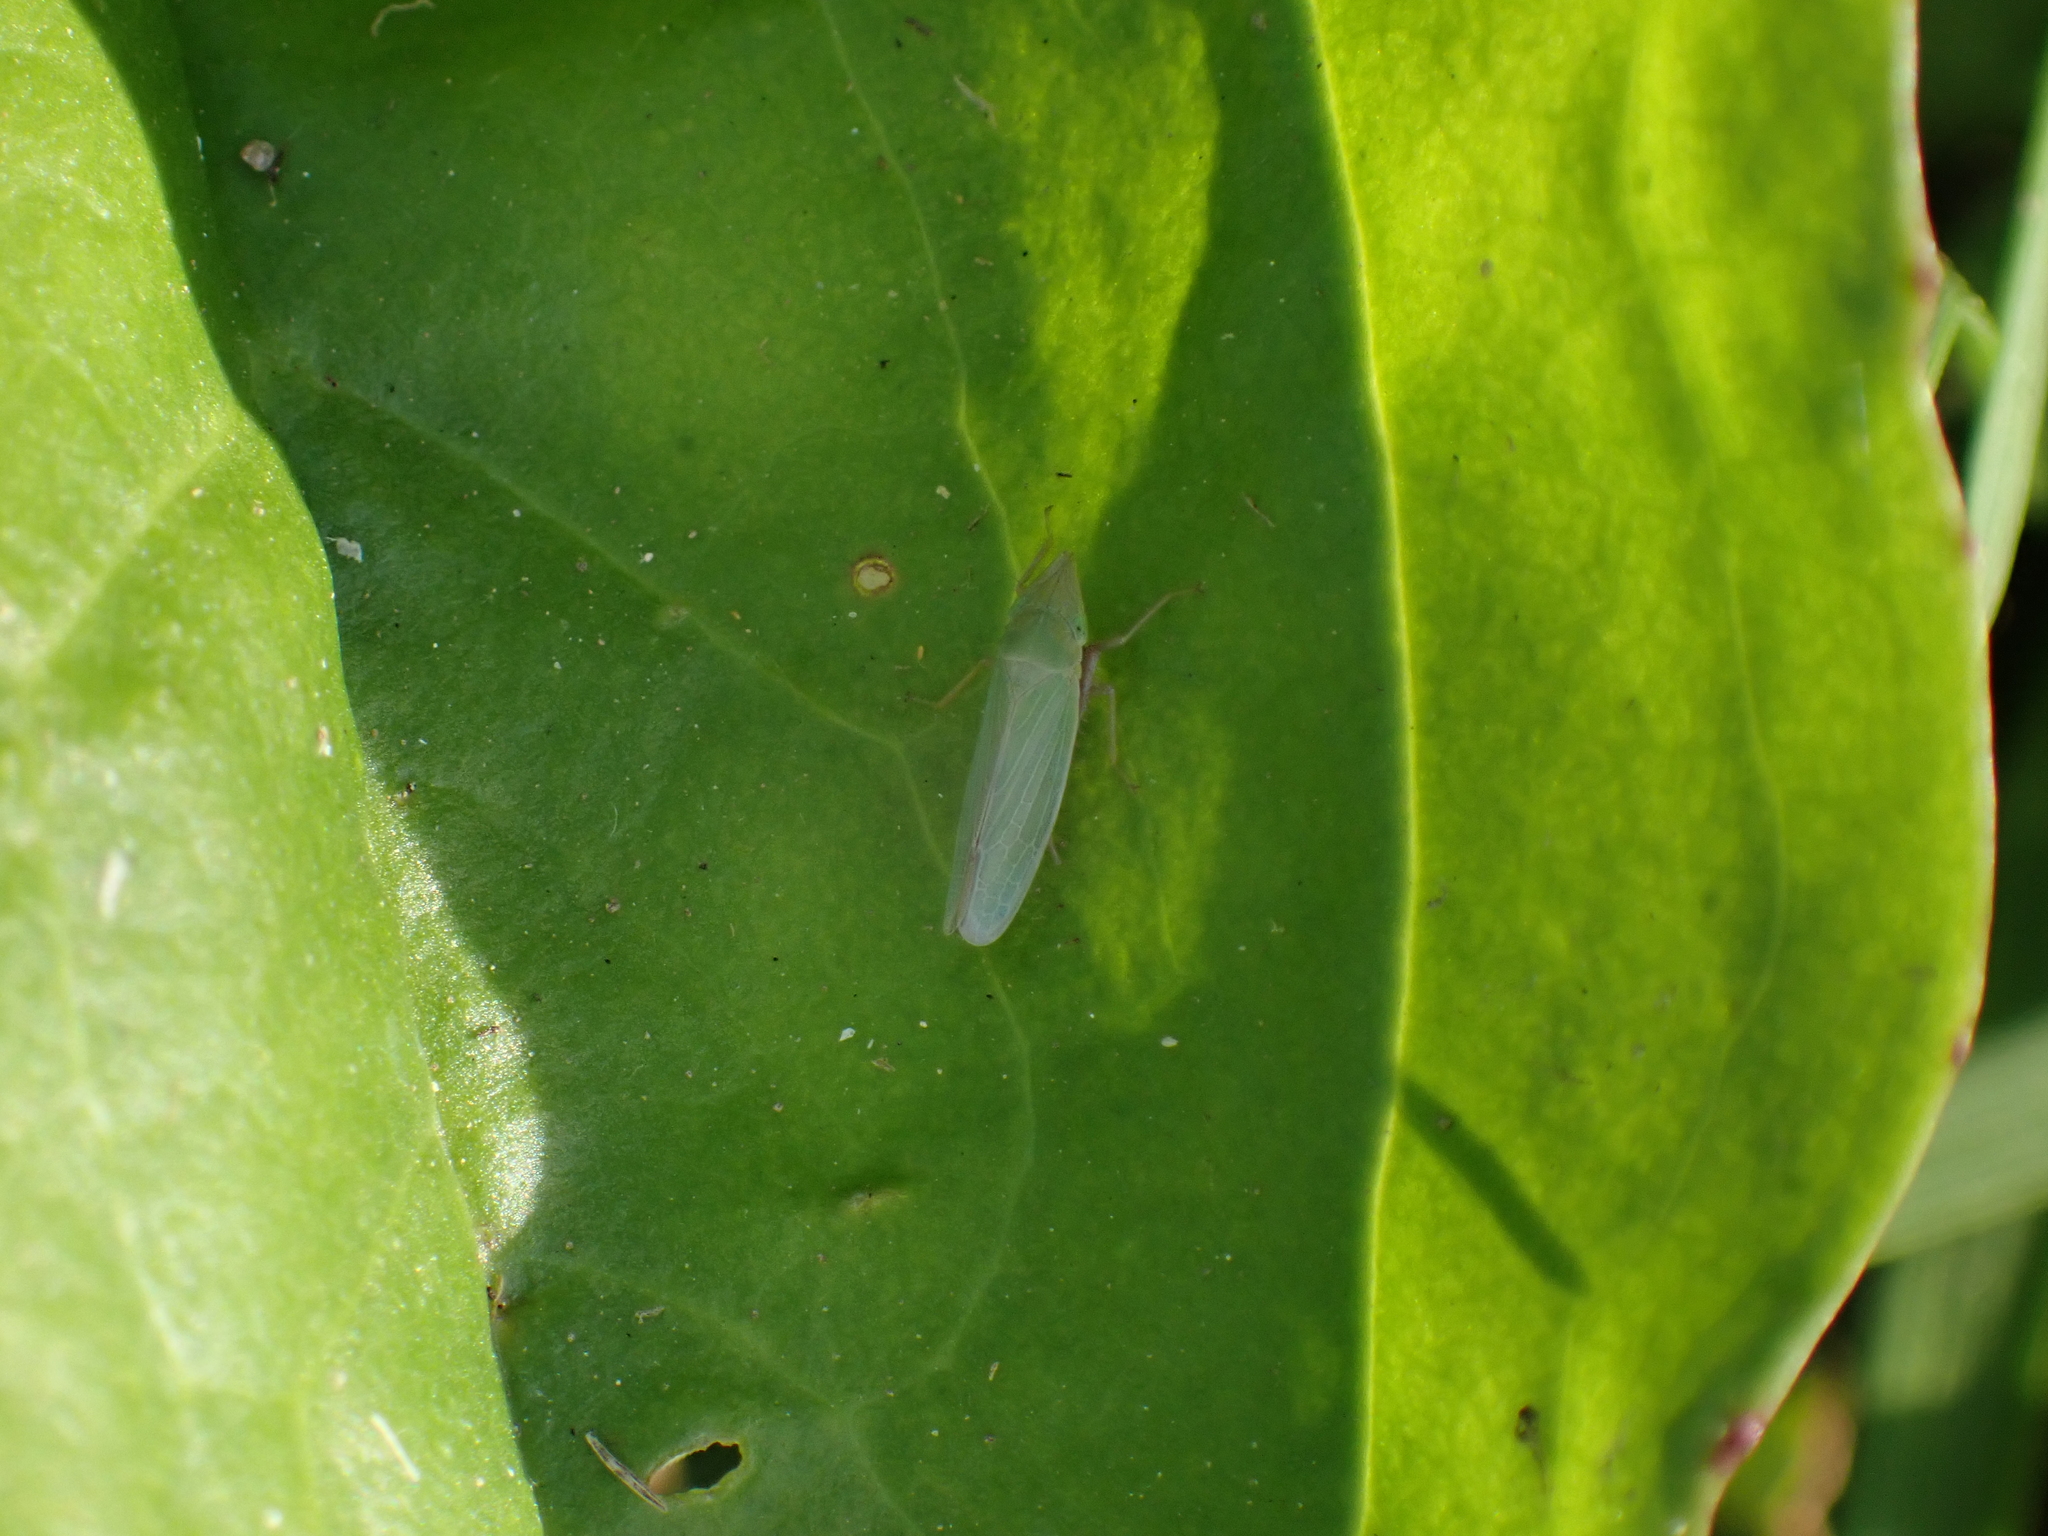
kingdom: Animalia
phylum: Arthropoda
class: Insecta
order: Hemiptera
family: Cicadellidae
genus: Draeculacephala
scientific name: Draeculacephala antica
